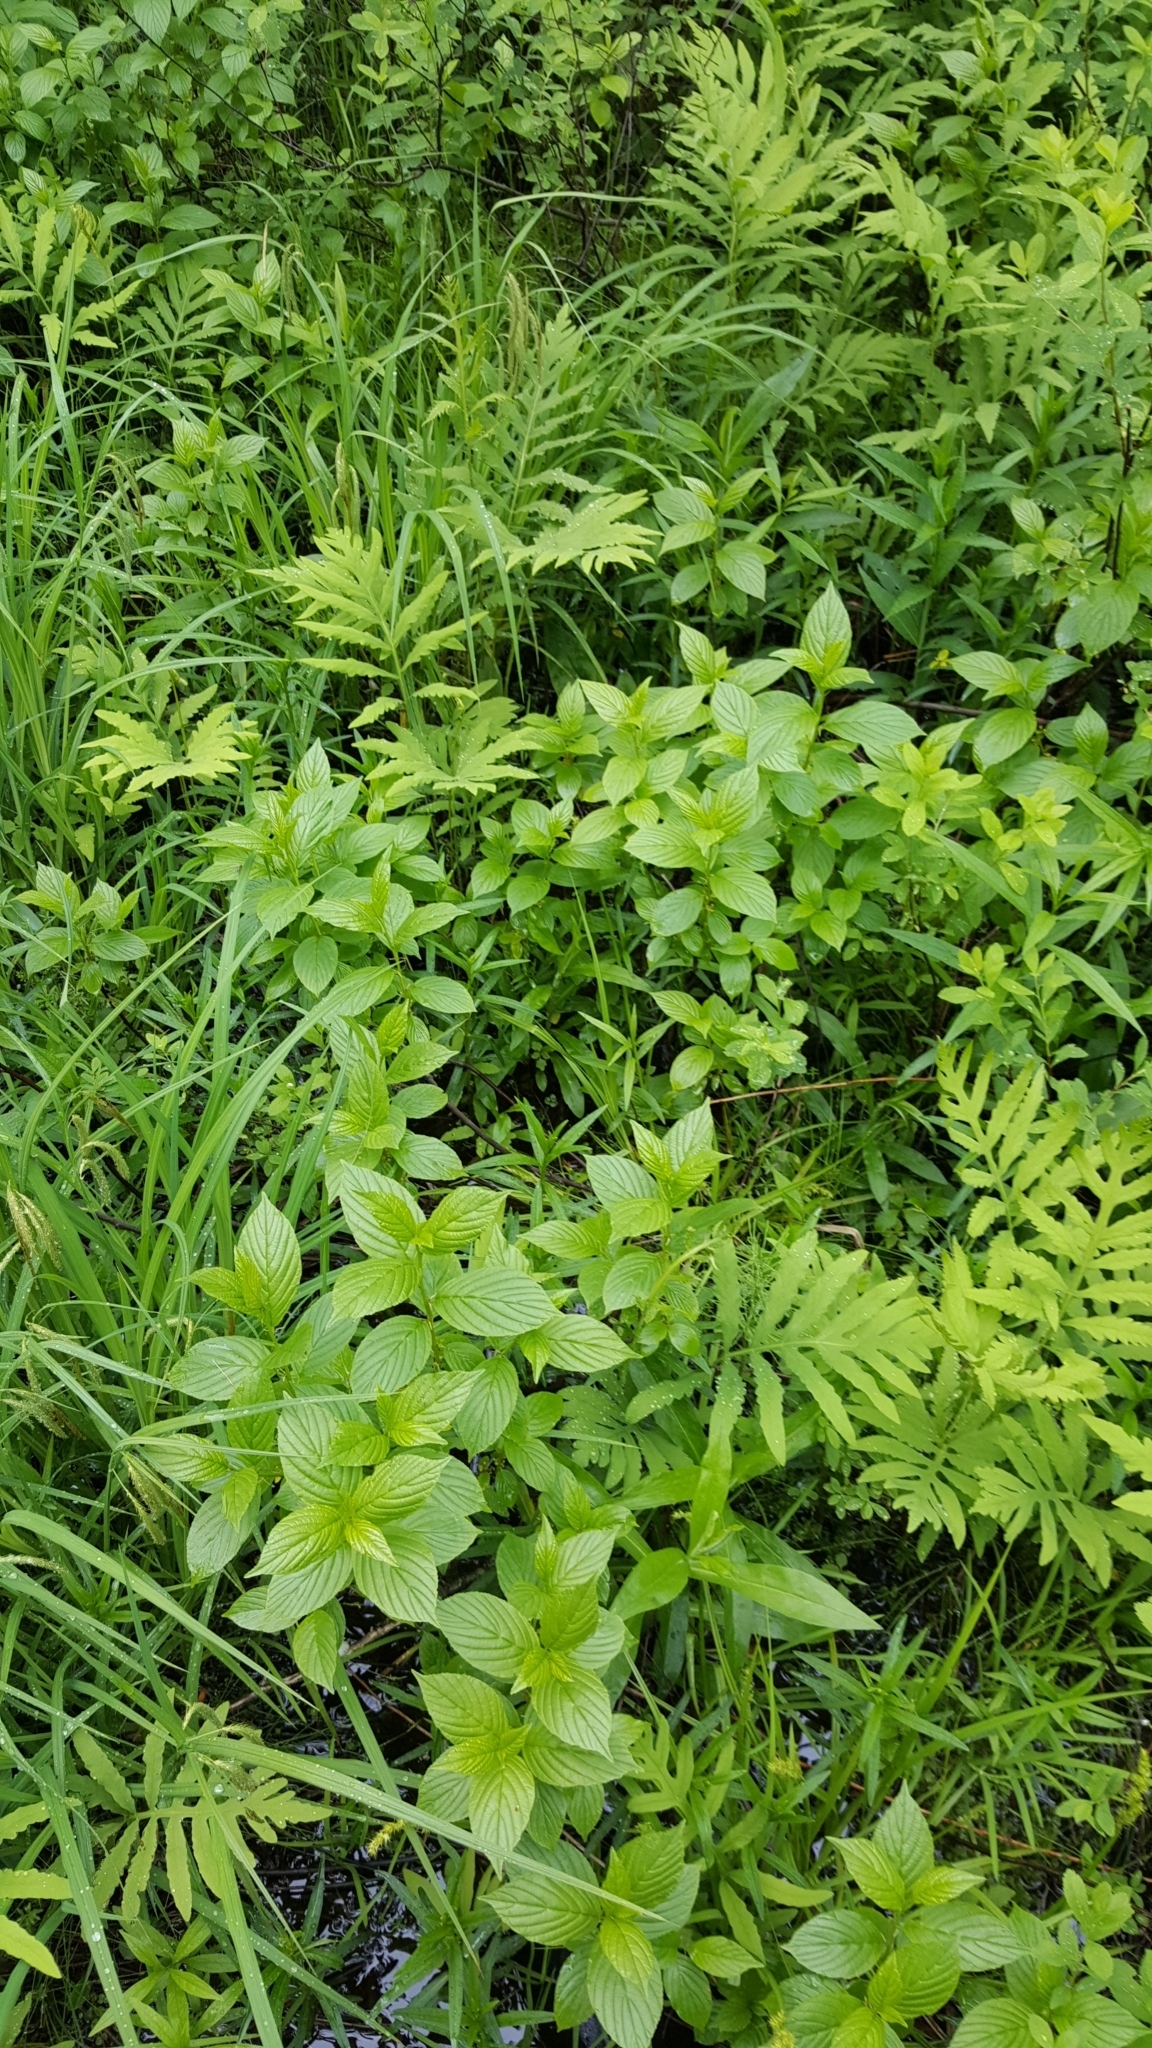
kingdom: Plantae
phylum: Tracheophyta
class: Magnoliopsida
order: Rosales
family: Rhamnaceae
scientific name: Rhamnaceae
